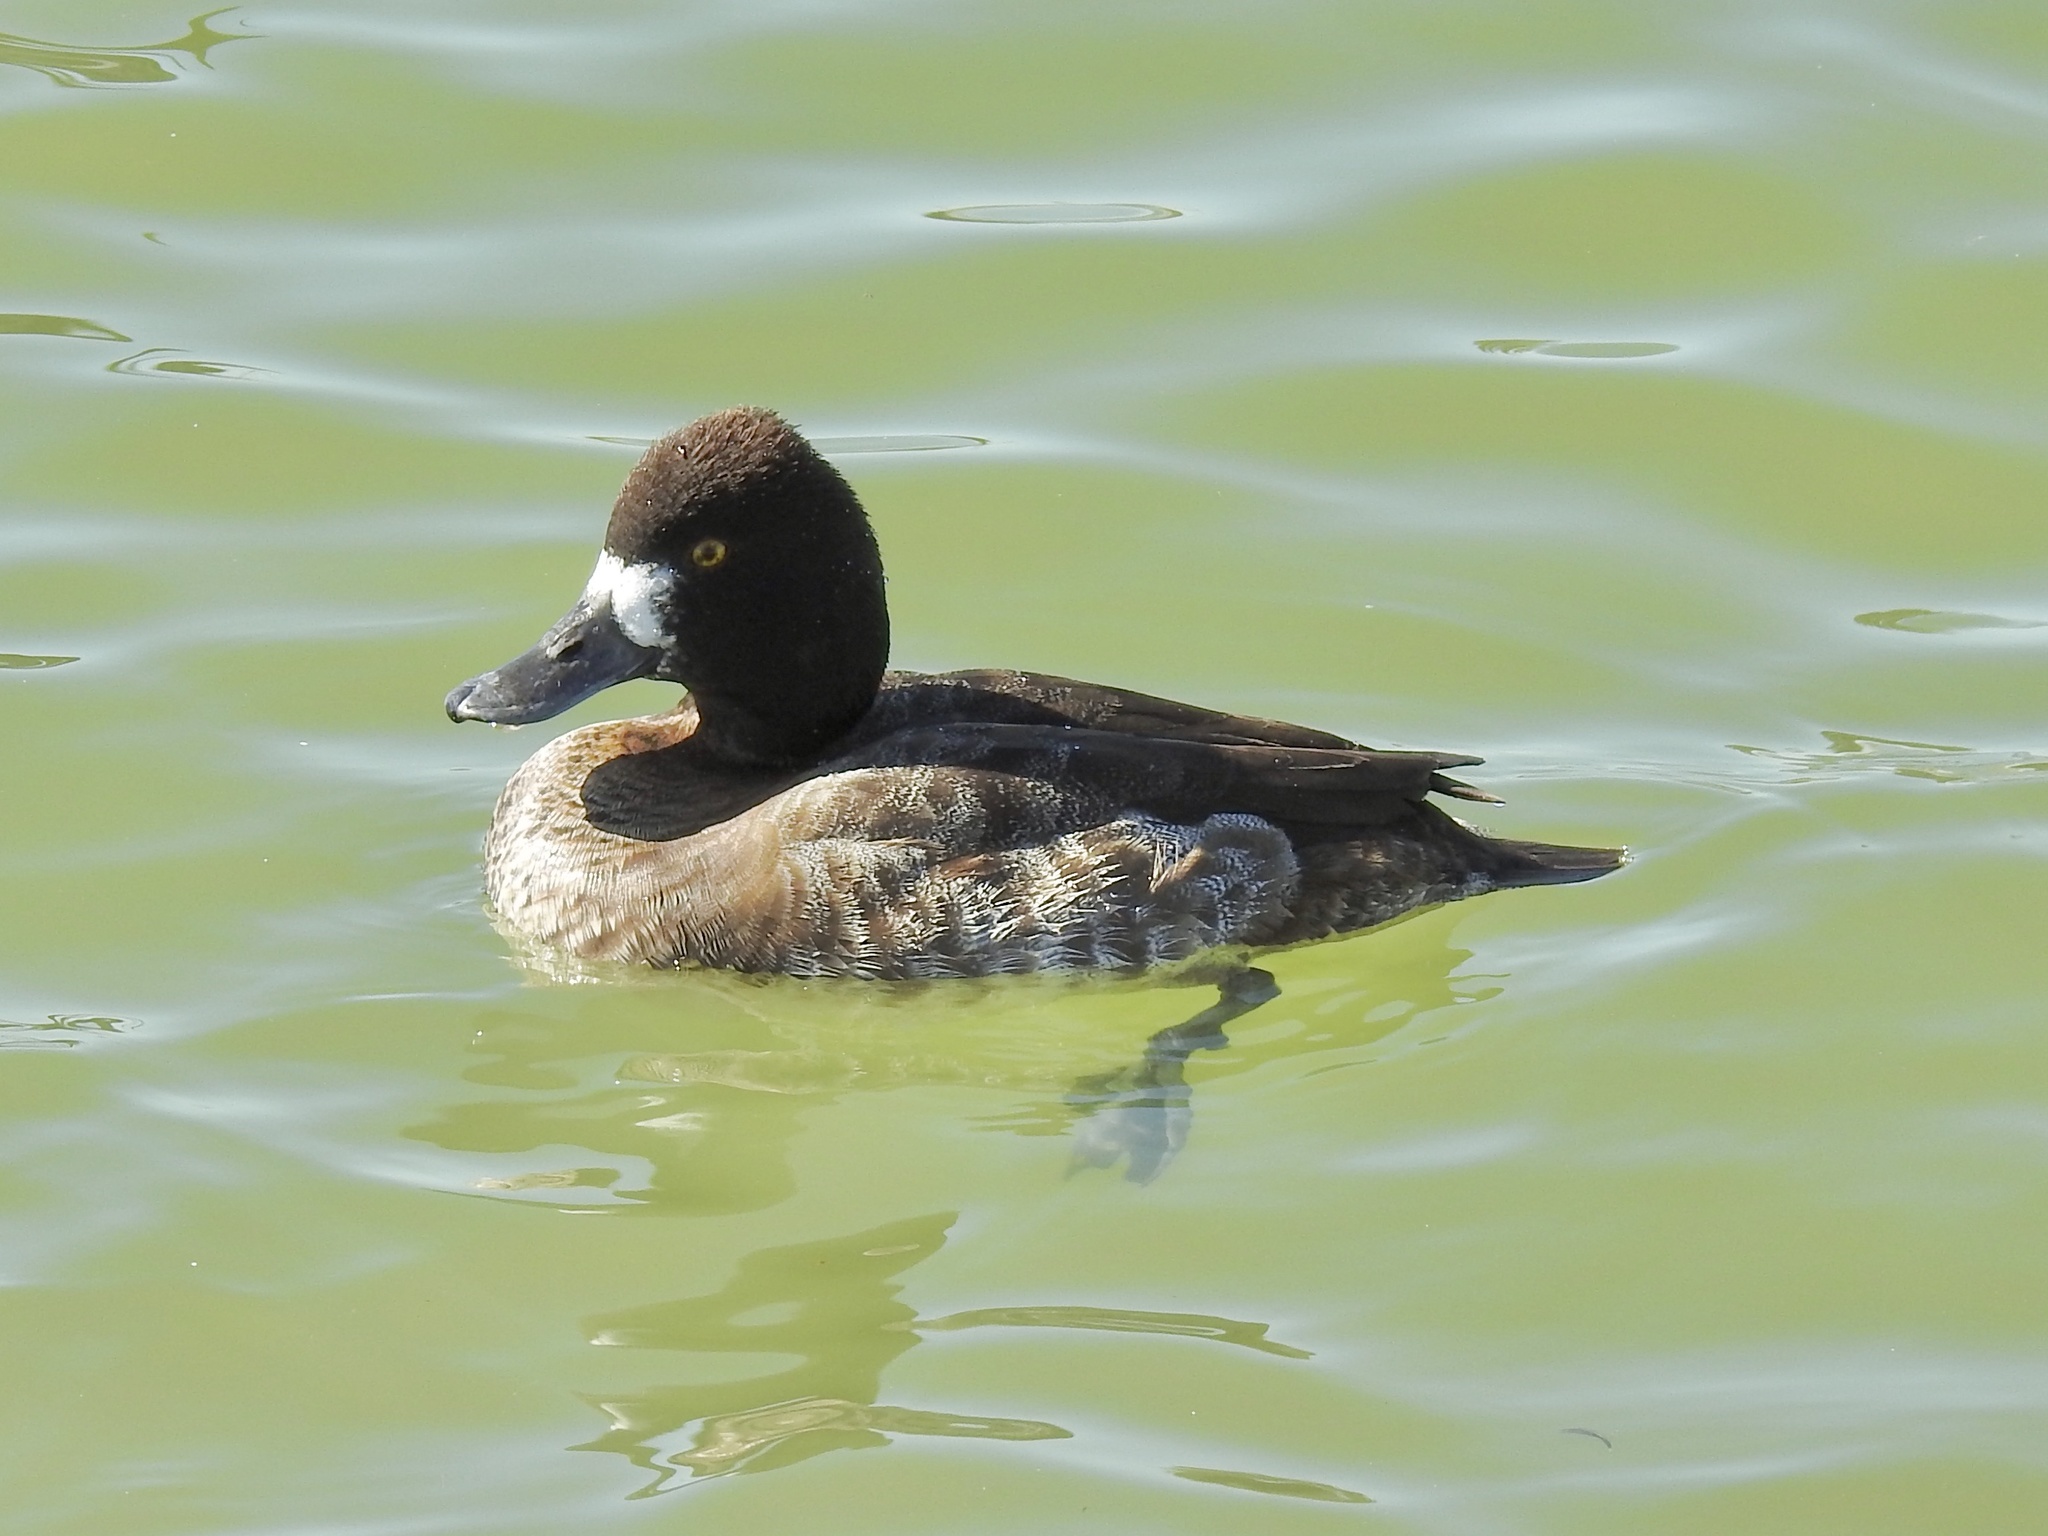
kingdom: Animalia
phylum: Chordata
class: Aves
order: Anseriformes
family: Anatidae
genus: Aythya
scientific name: Aythya affinis
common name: Lesser scaup
